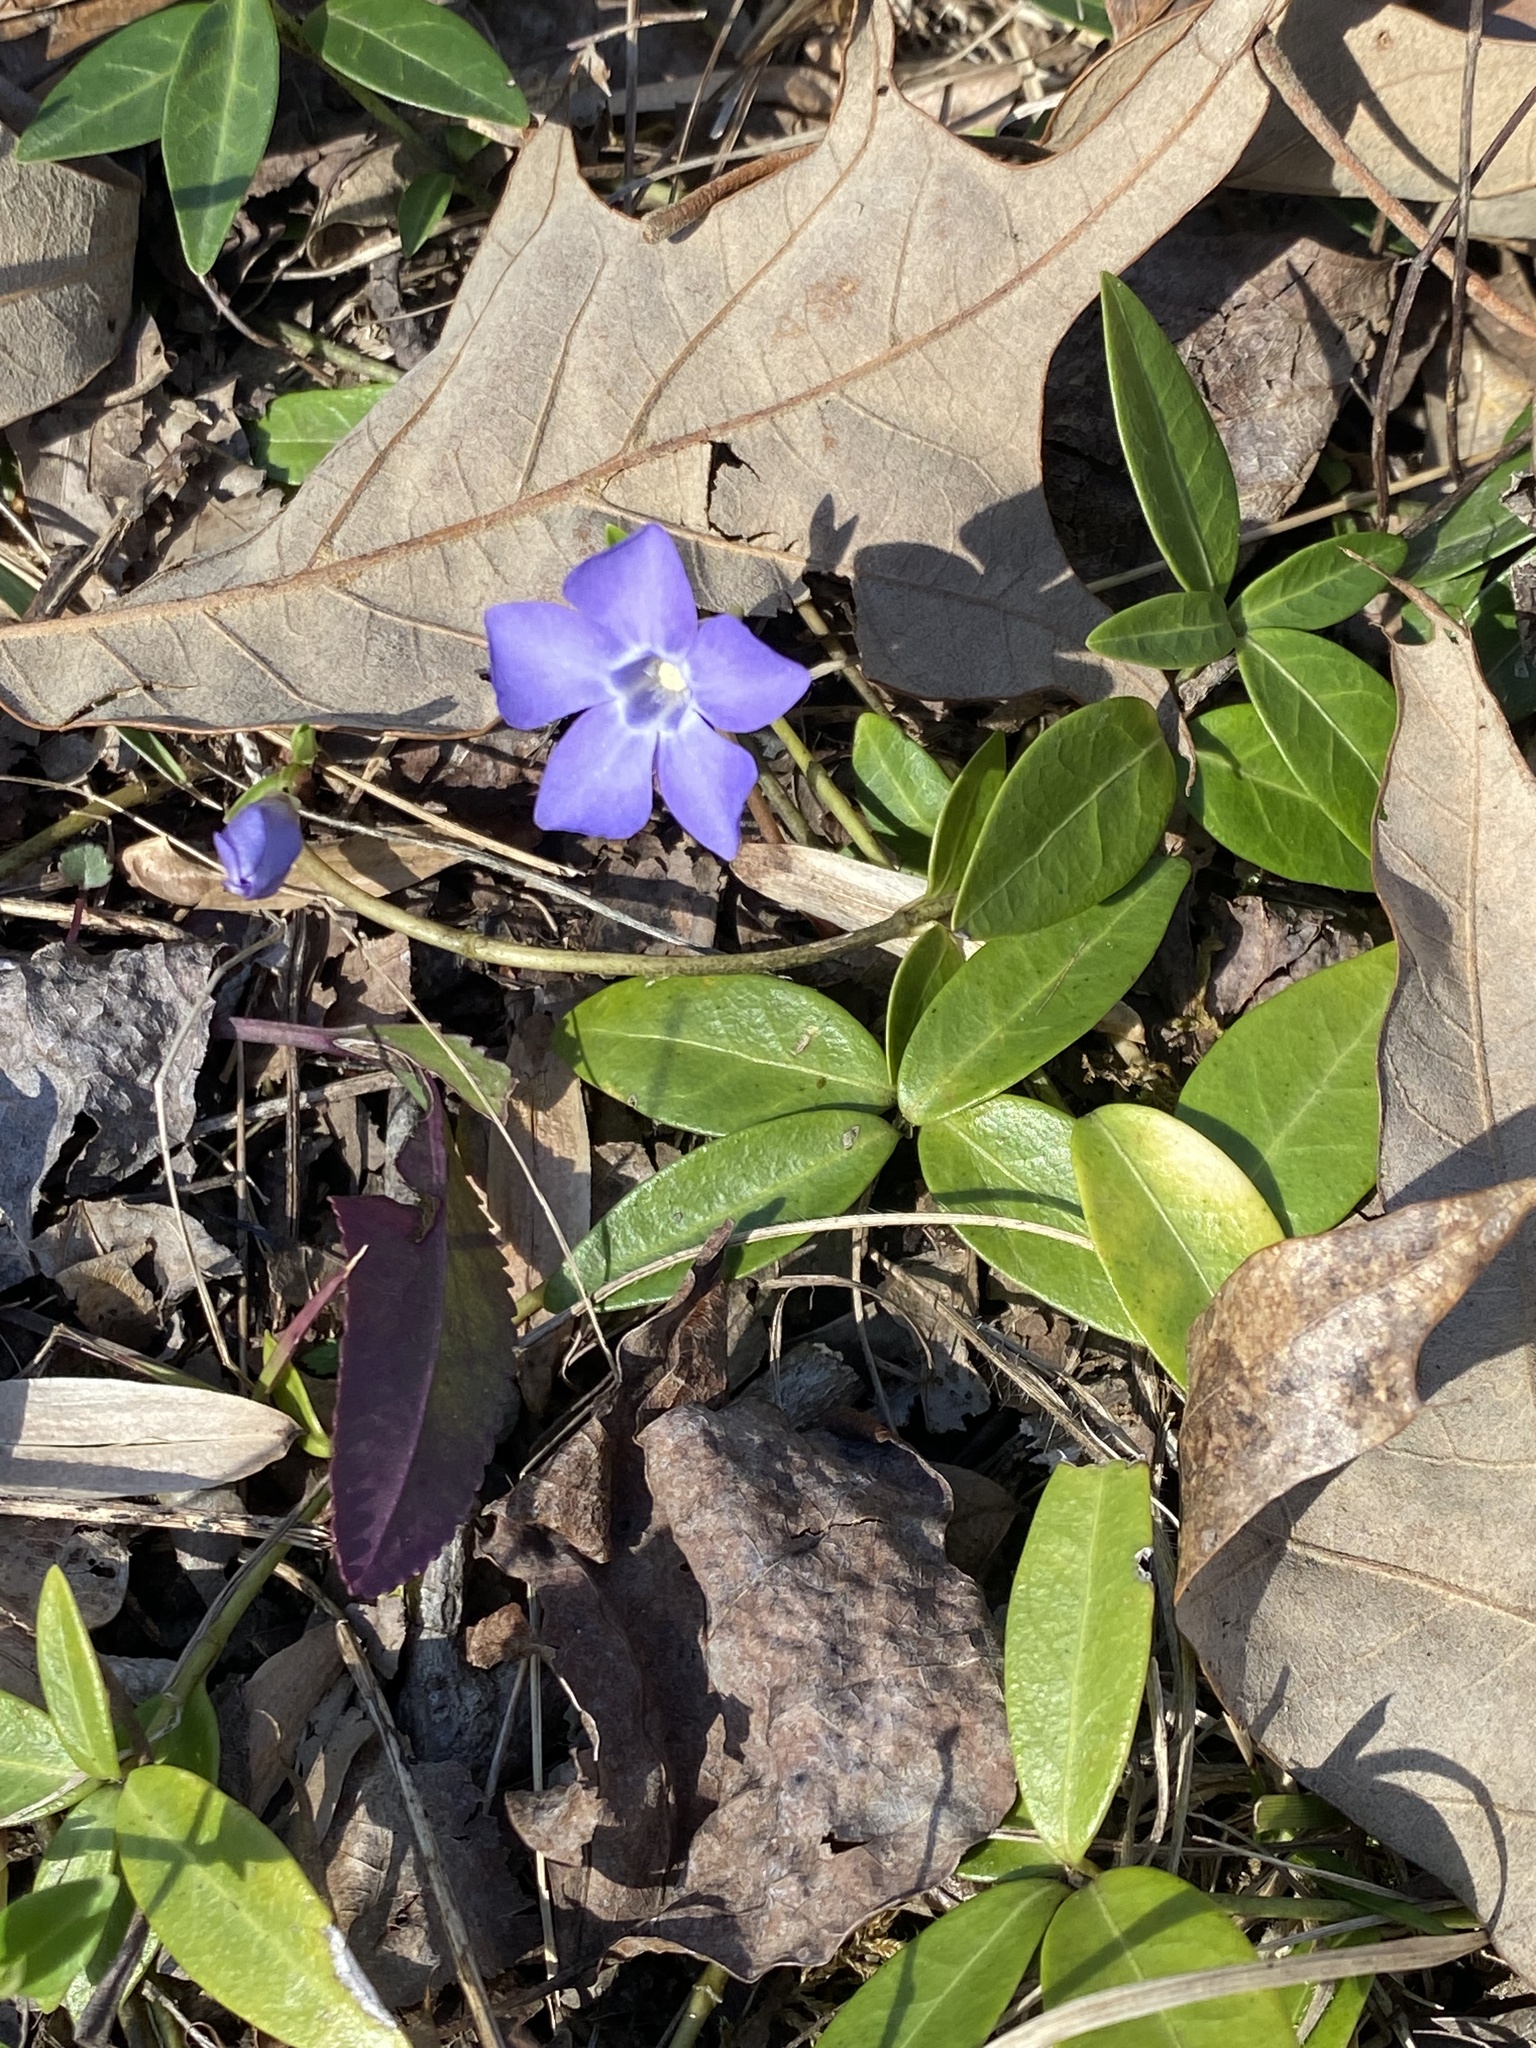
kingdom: Plantae
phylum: Tracheophyta
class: Magnoliopsida
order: Gentianales
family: Apocynaceae
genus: Vinca
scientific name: Vinca minor
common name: Lesser periwinkle
